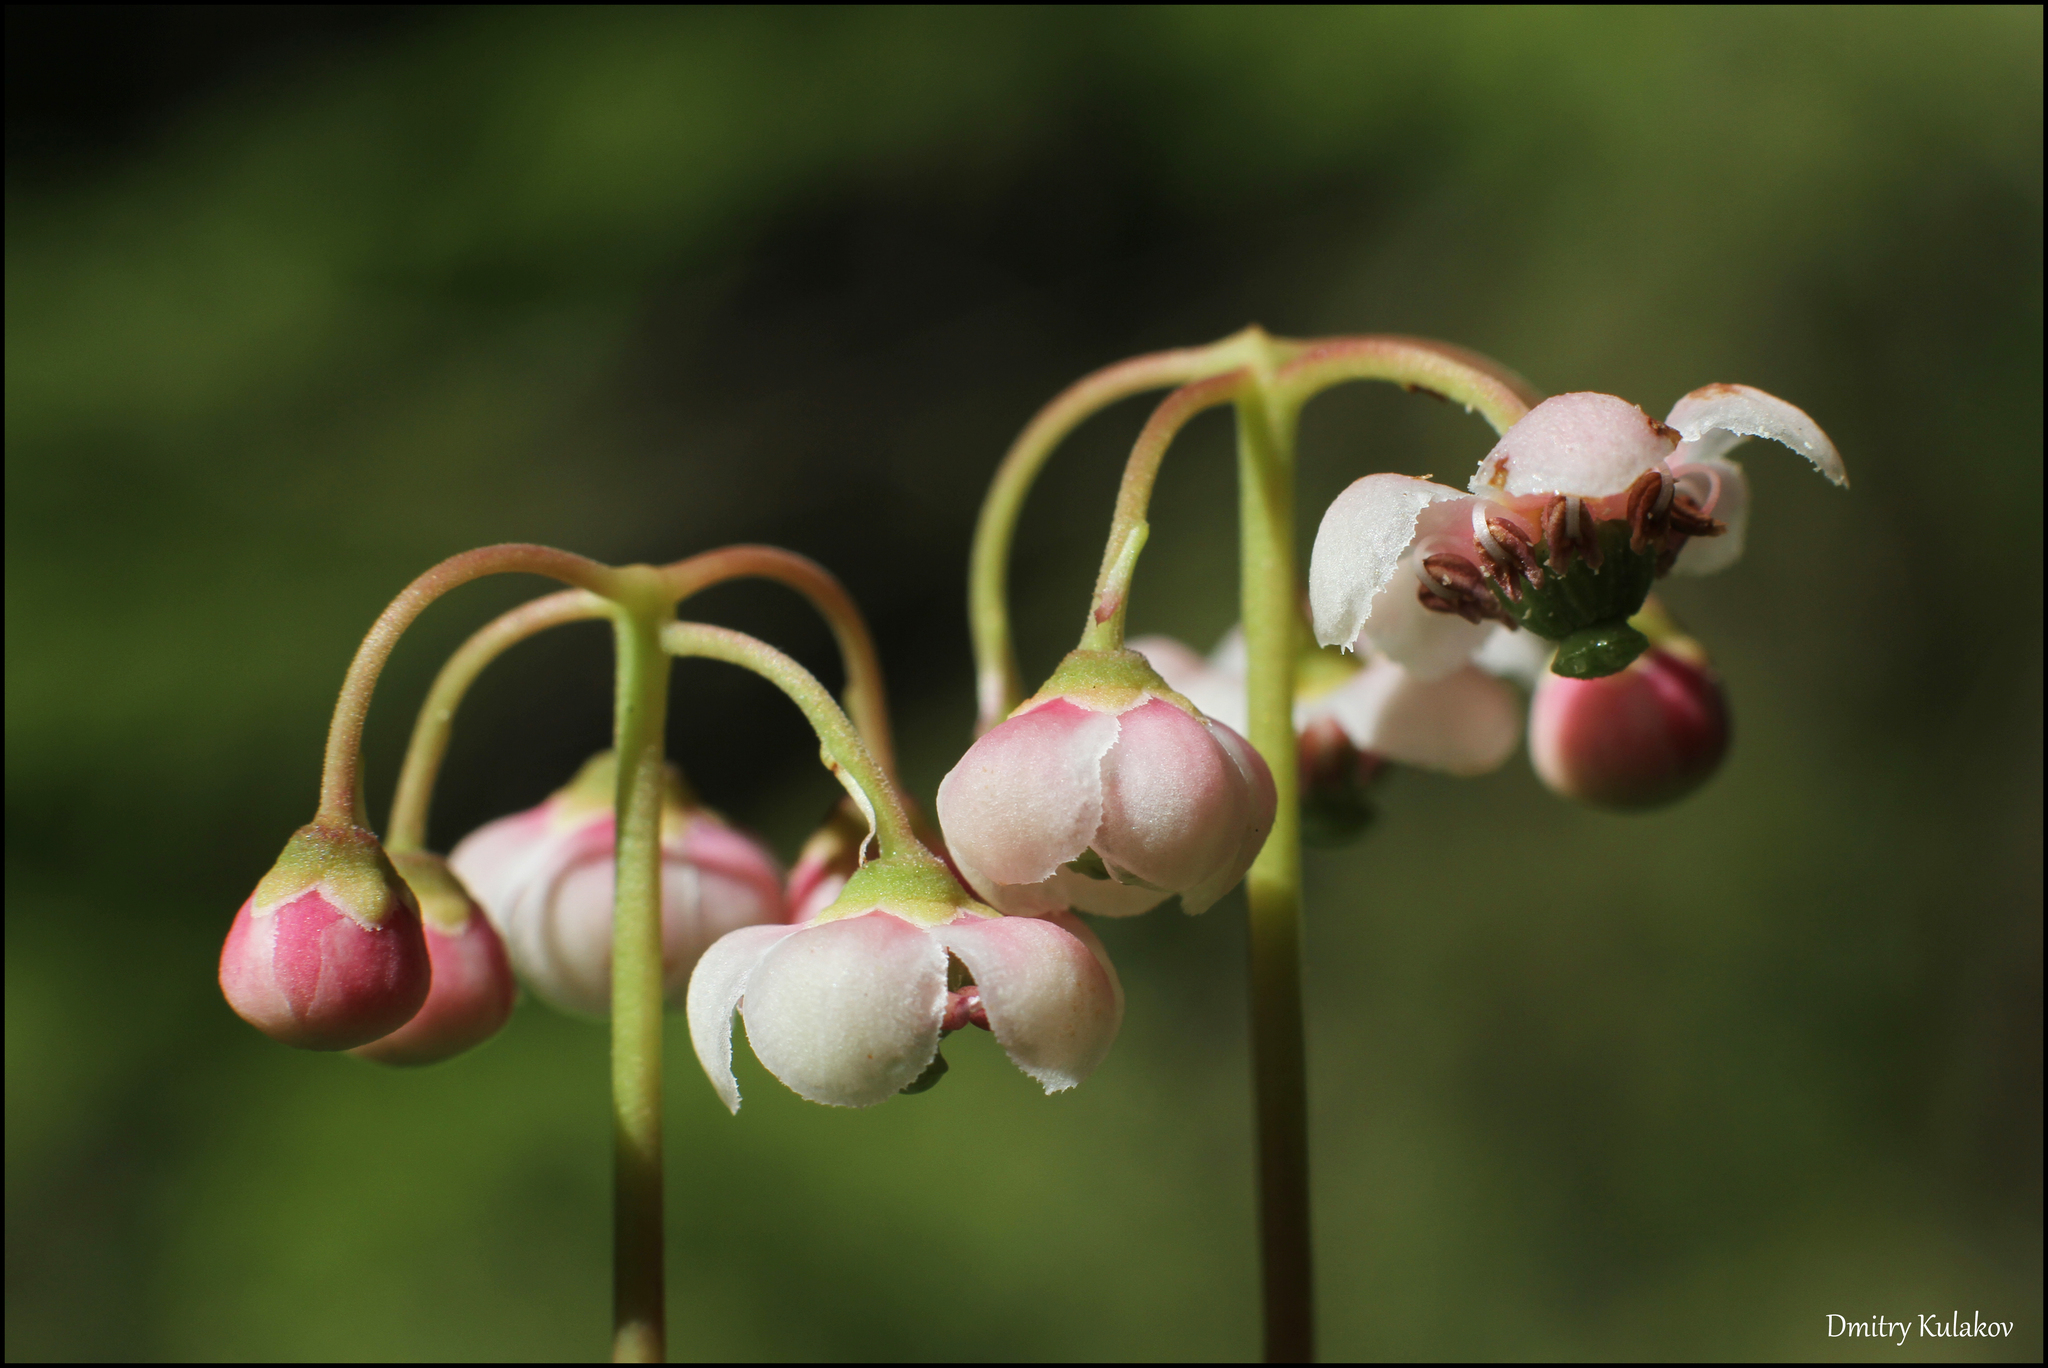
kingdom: Plantae
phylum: Tracheophyta
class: Magnoliopsida
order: Ericales
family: Ericaceae
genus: Chimaphila
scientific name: Chimaphila umbellata
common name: Pipsissewa
